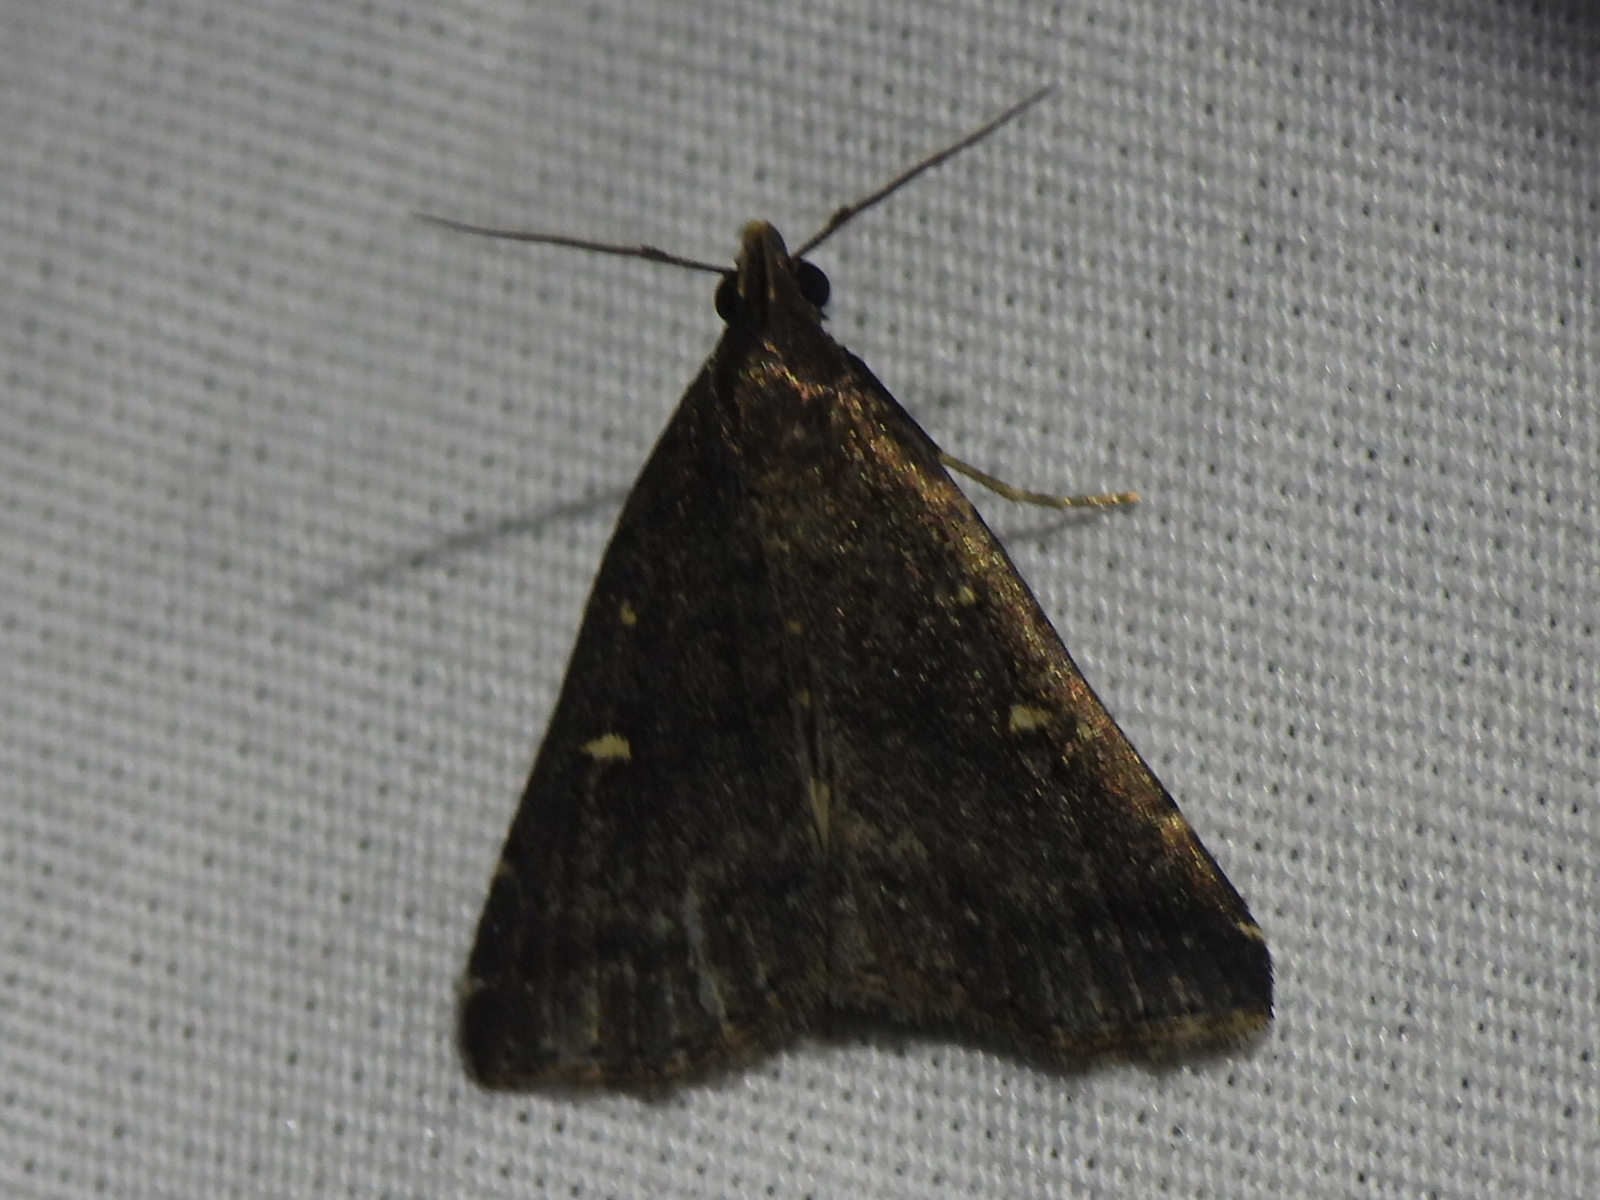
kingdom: Animalia
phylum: Arthropoda
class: Insecta
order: Lepidoptera
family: Erebidae
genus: Tetanolita
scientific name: Tetanolita mynesalis
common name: Smoky tetanolita moth
